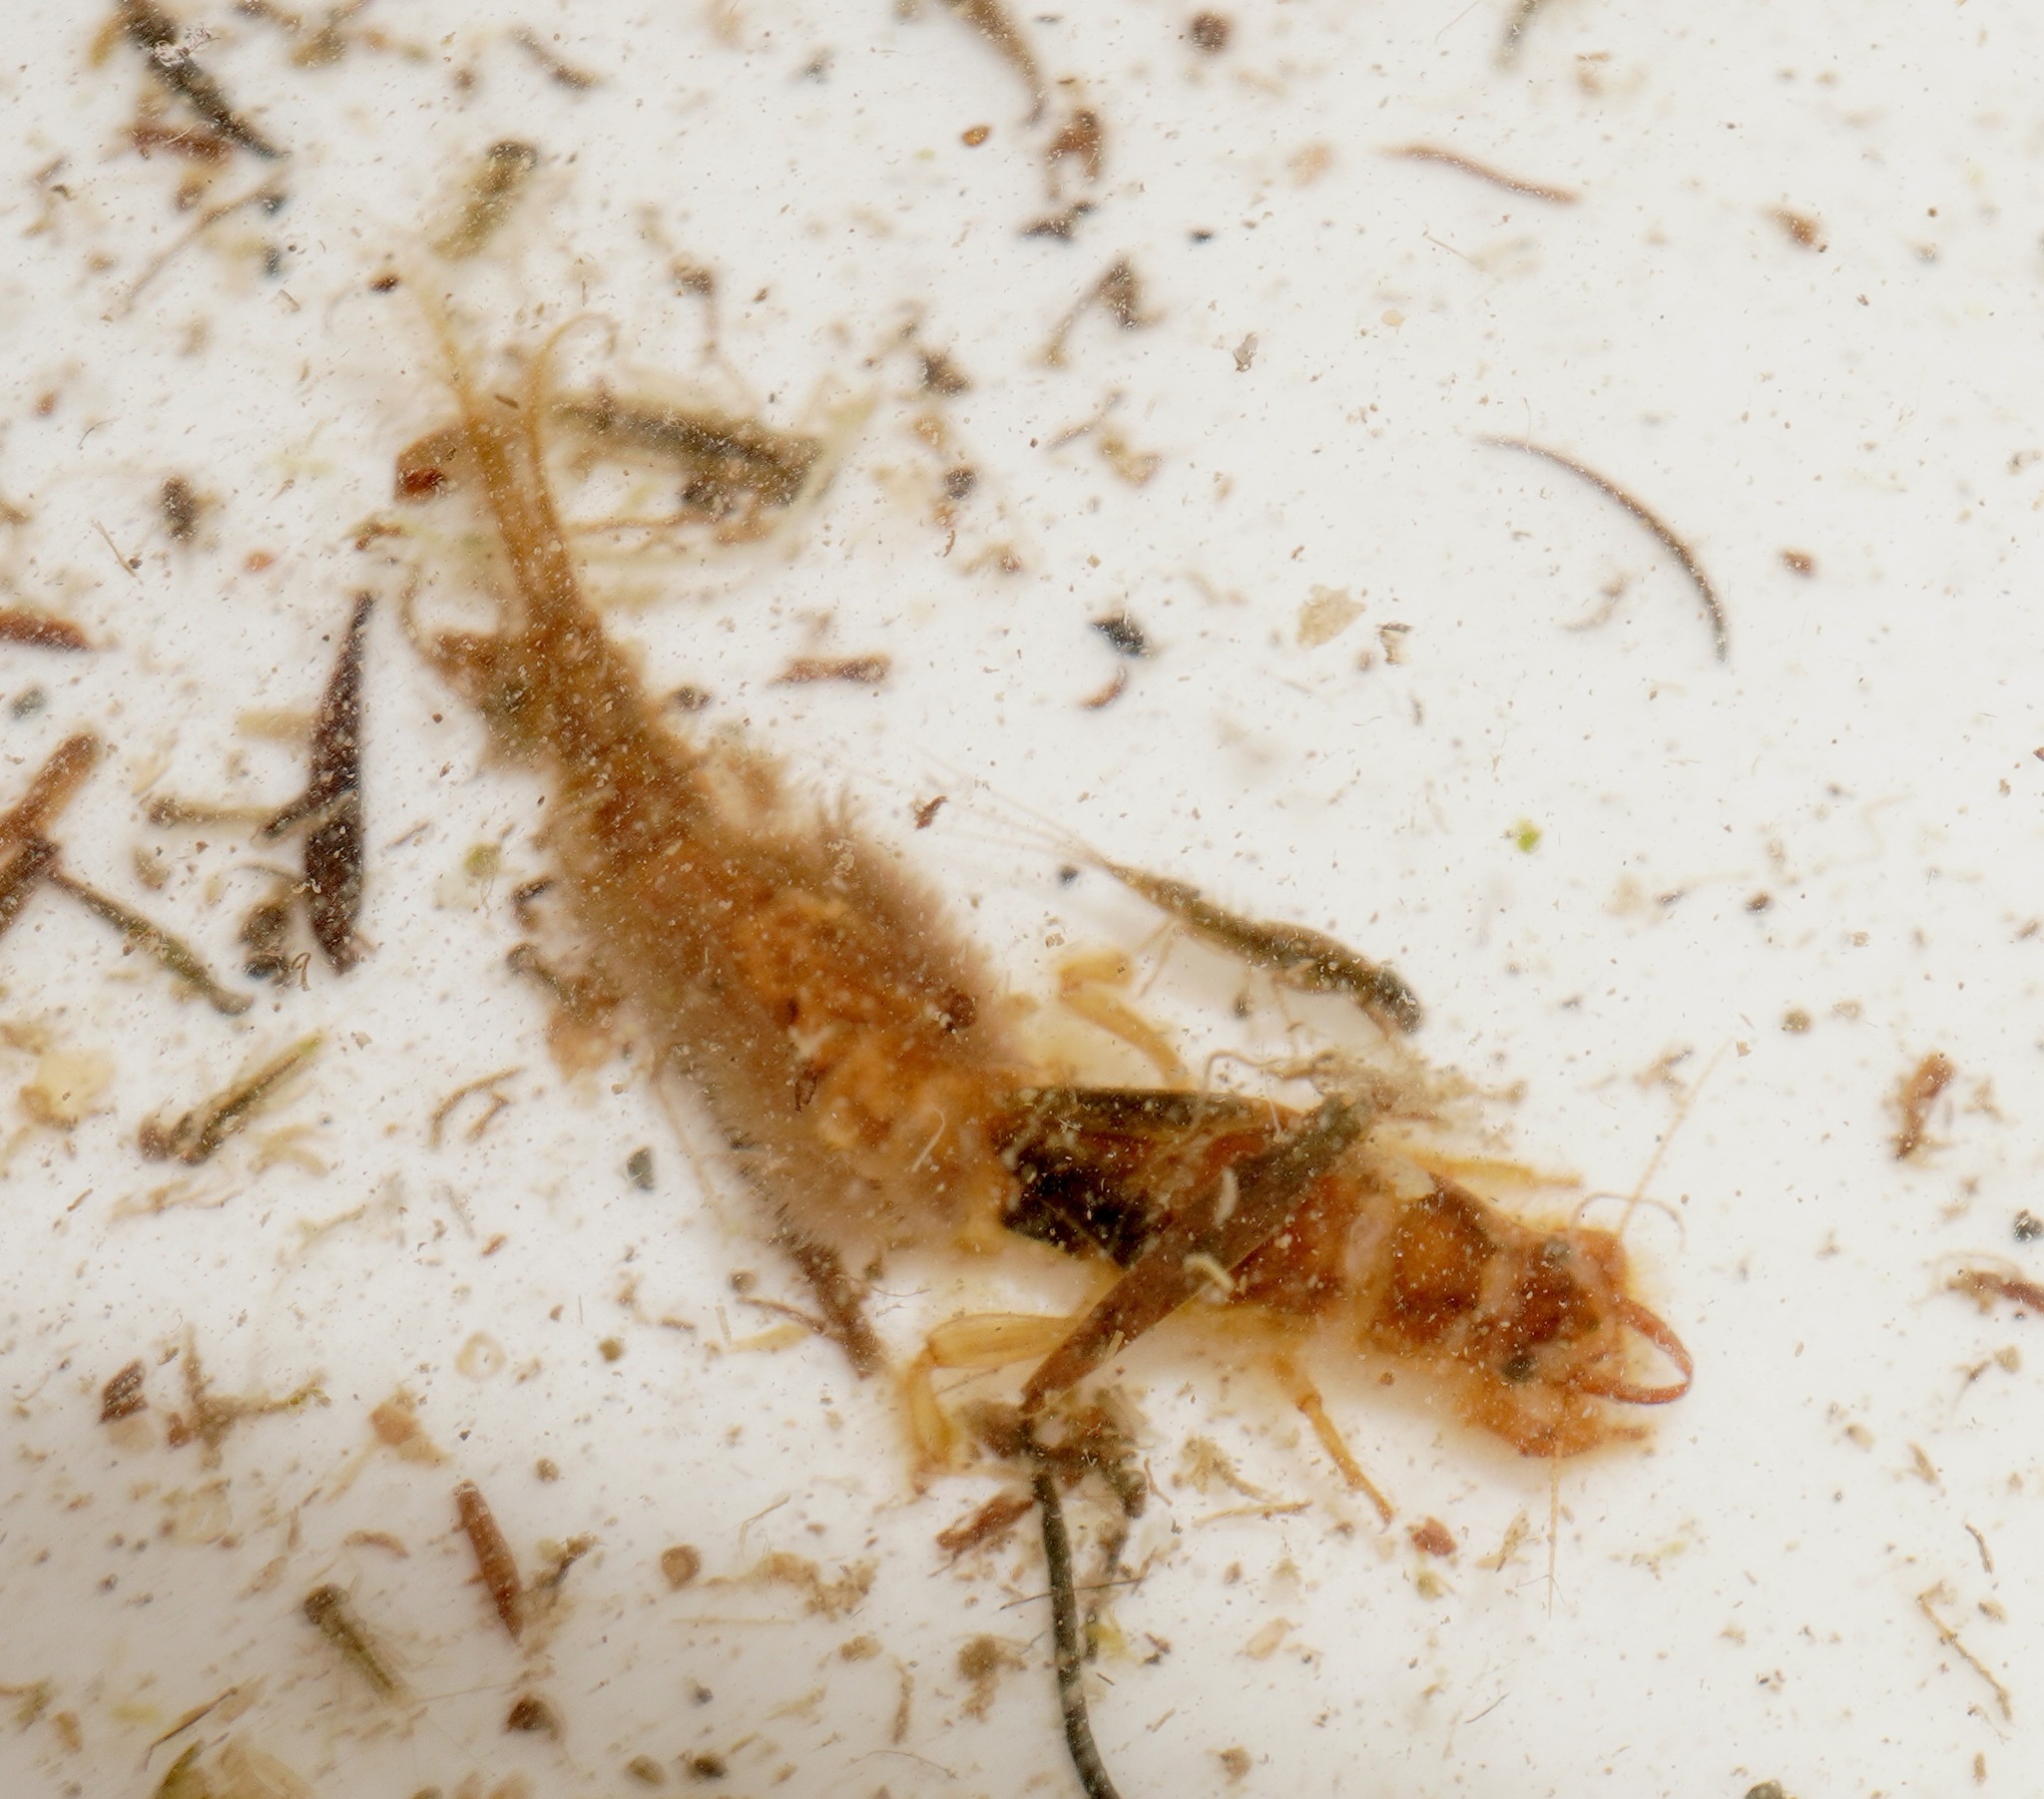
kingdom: Animalia
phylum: Arthropoda
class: Insecta
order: Ephemeroptera
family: Ichthybotidae
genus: Ichthybotus
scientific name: Ichthybotus bicolor
